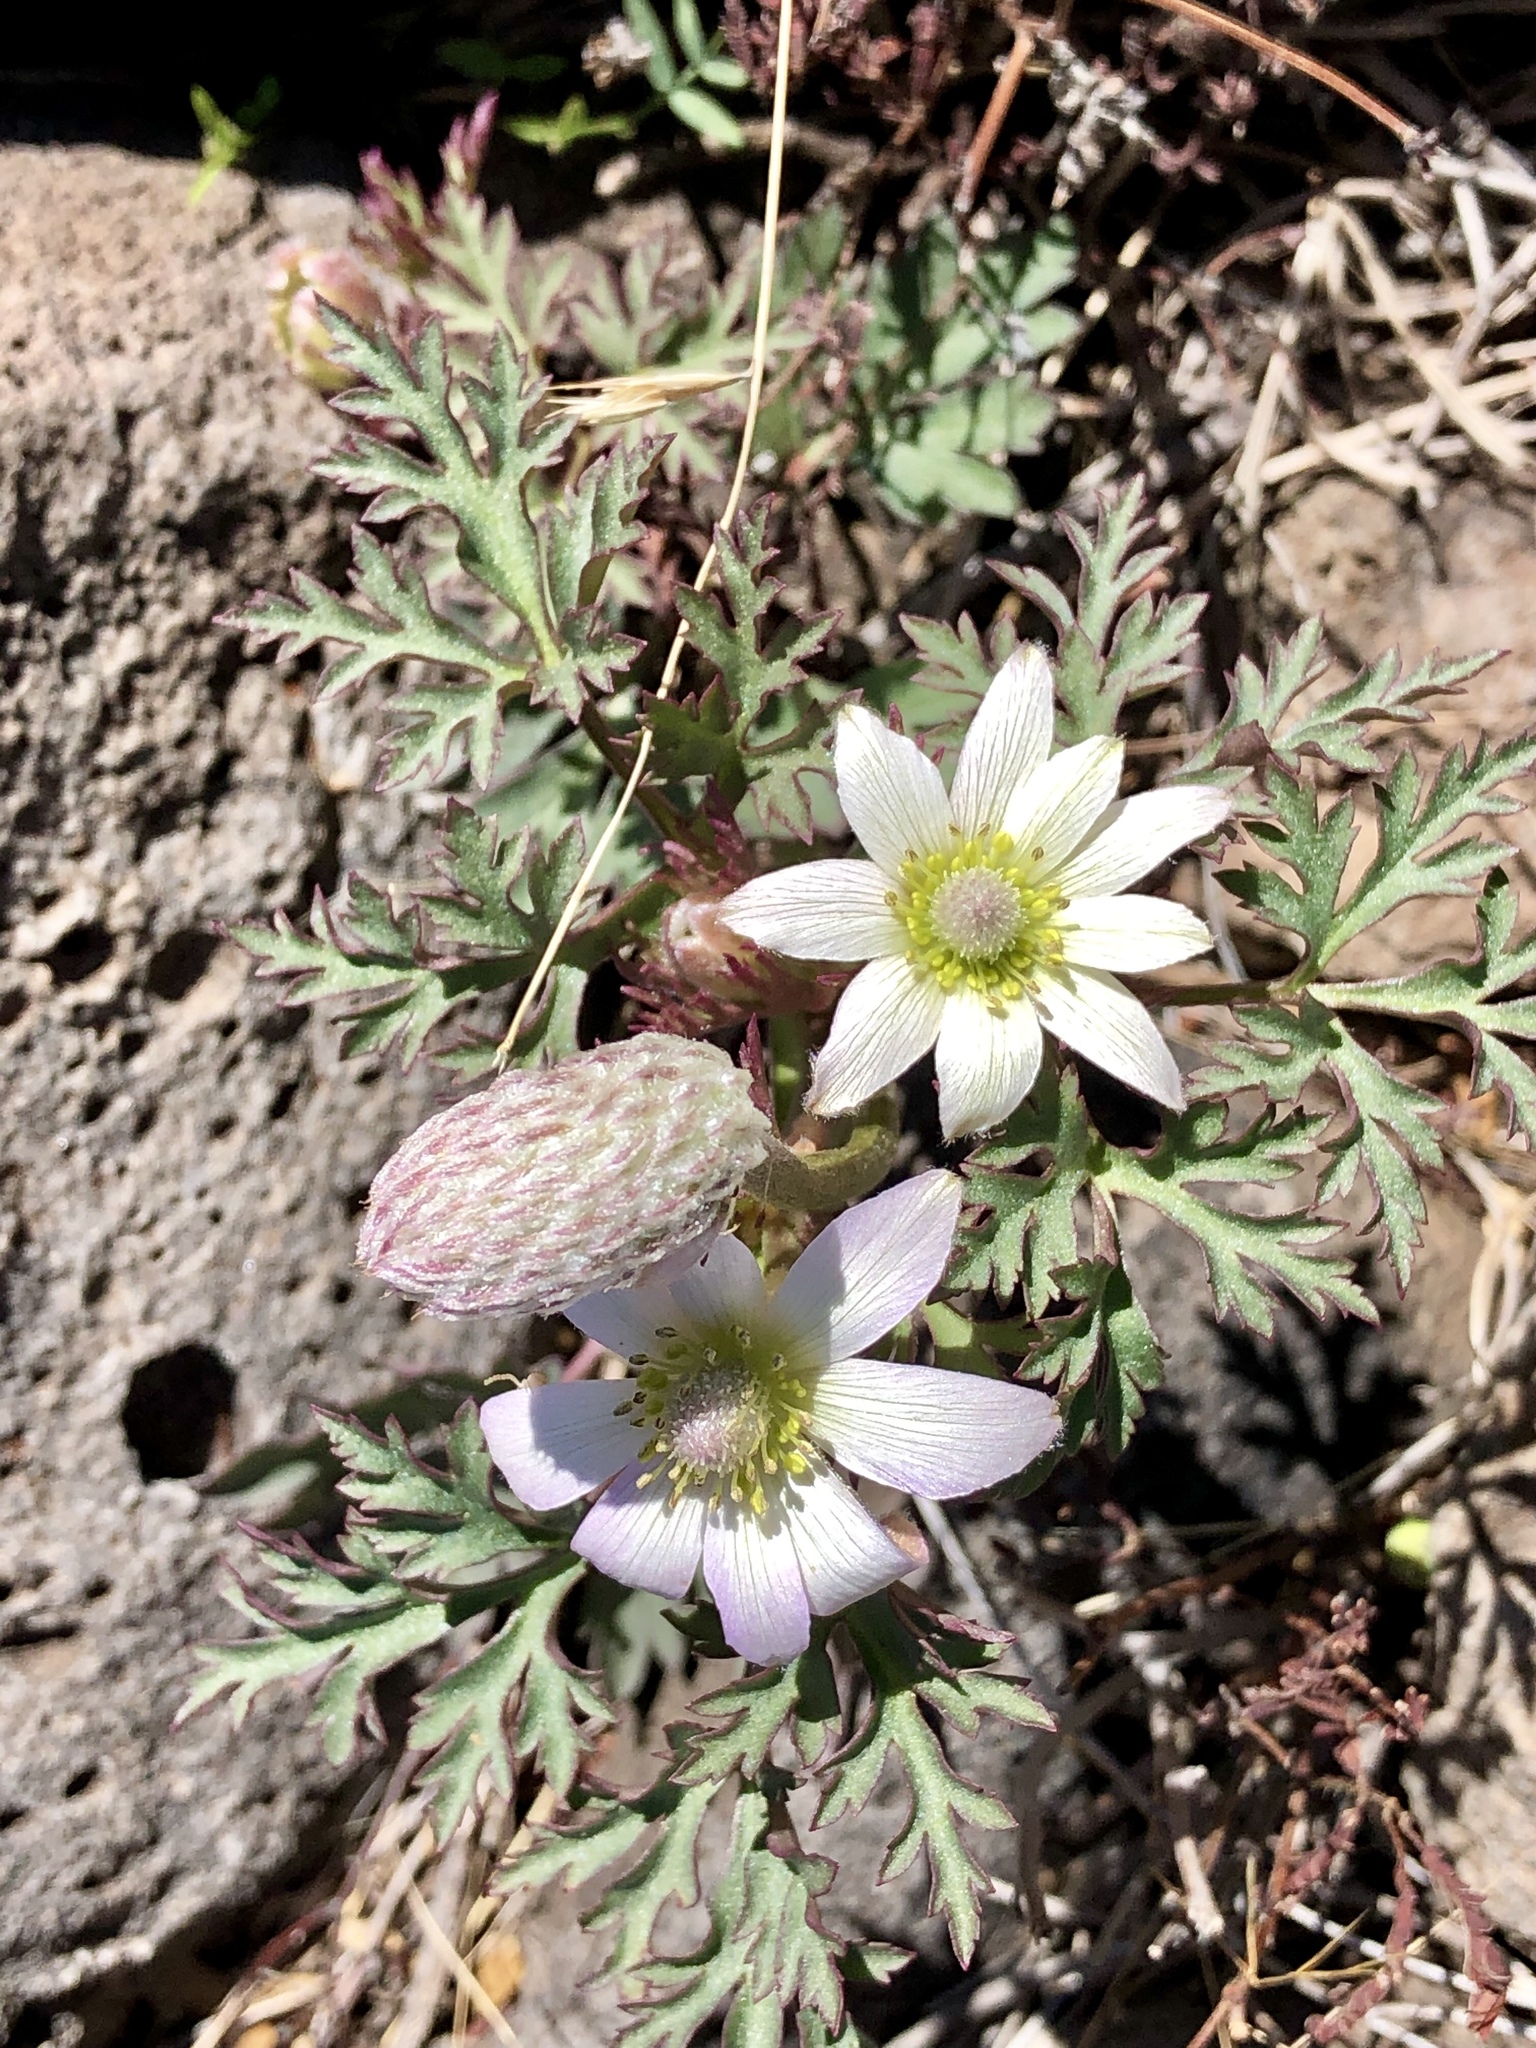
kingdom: Plantae
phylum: Tracheophyta
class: Magnoliopsida
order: Ranunculales
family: Ranunculaceae
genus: Anemone
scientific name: Anemone tuberosa
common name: Desert anemone
